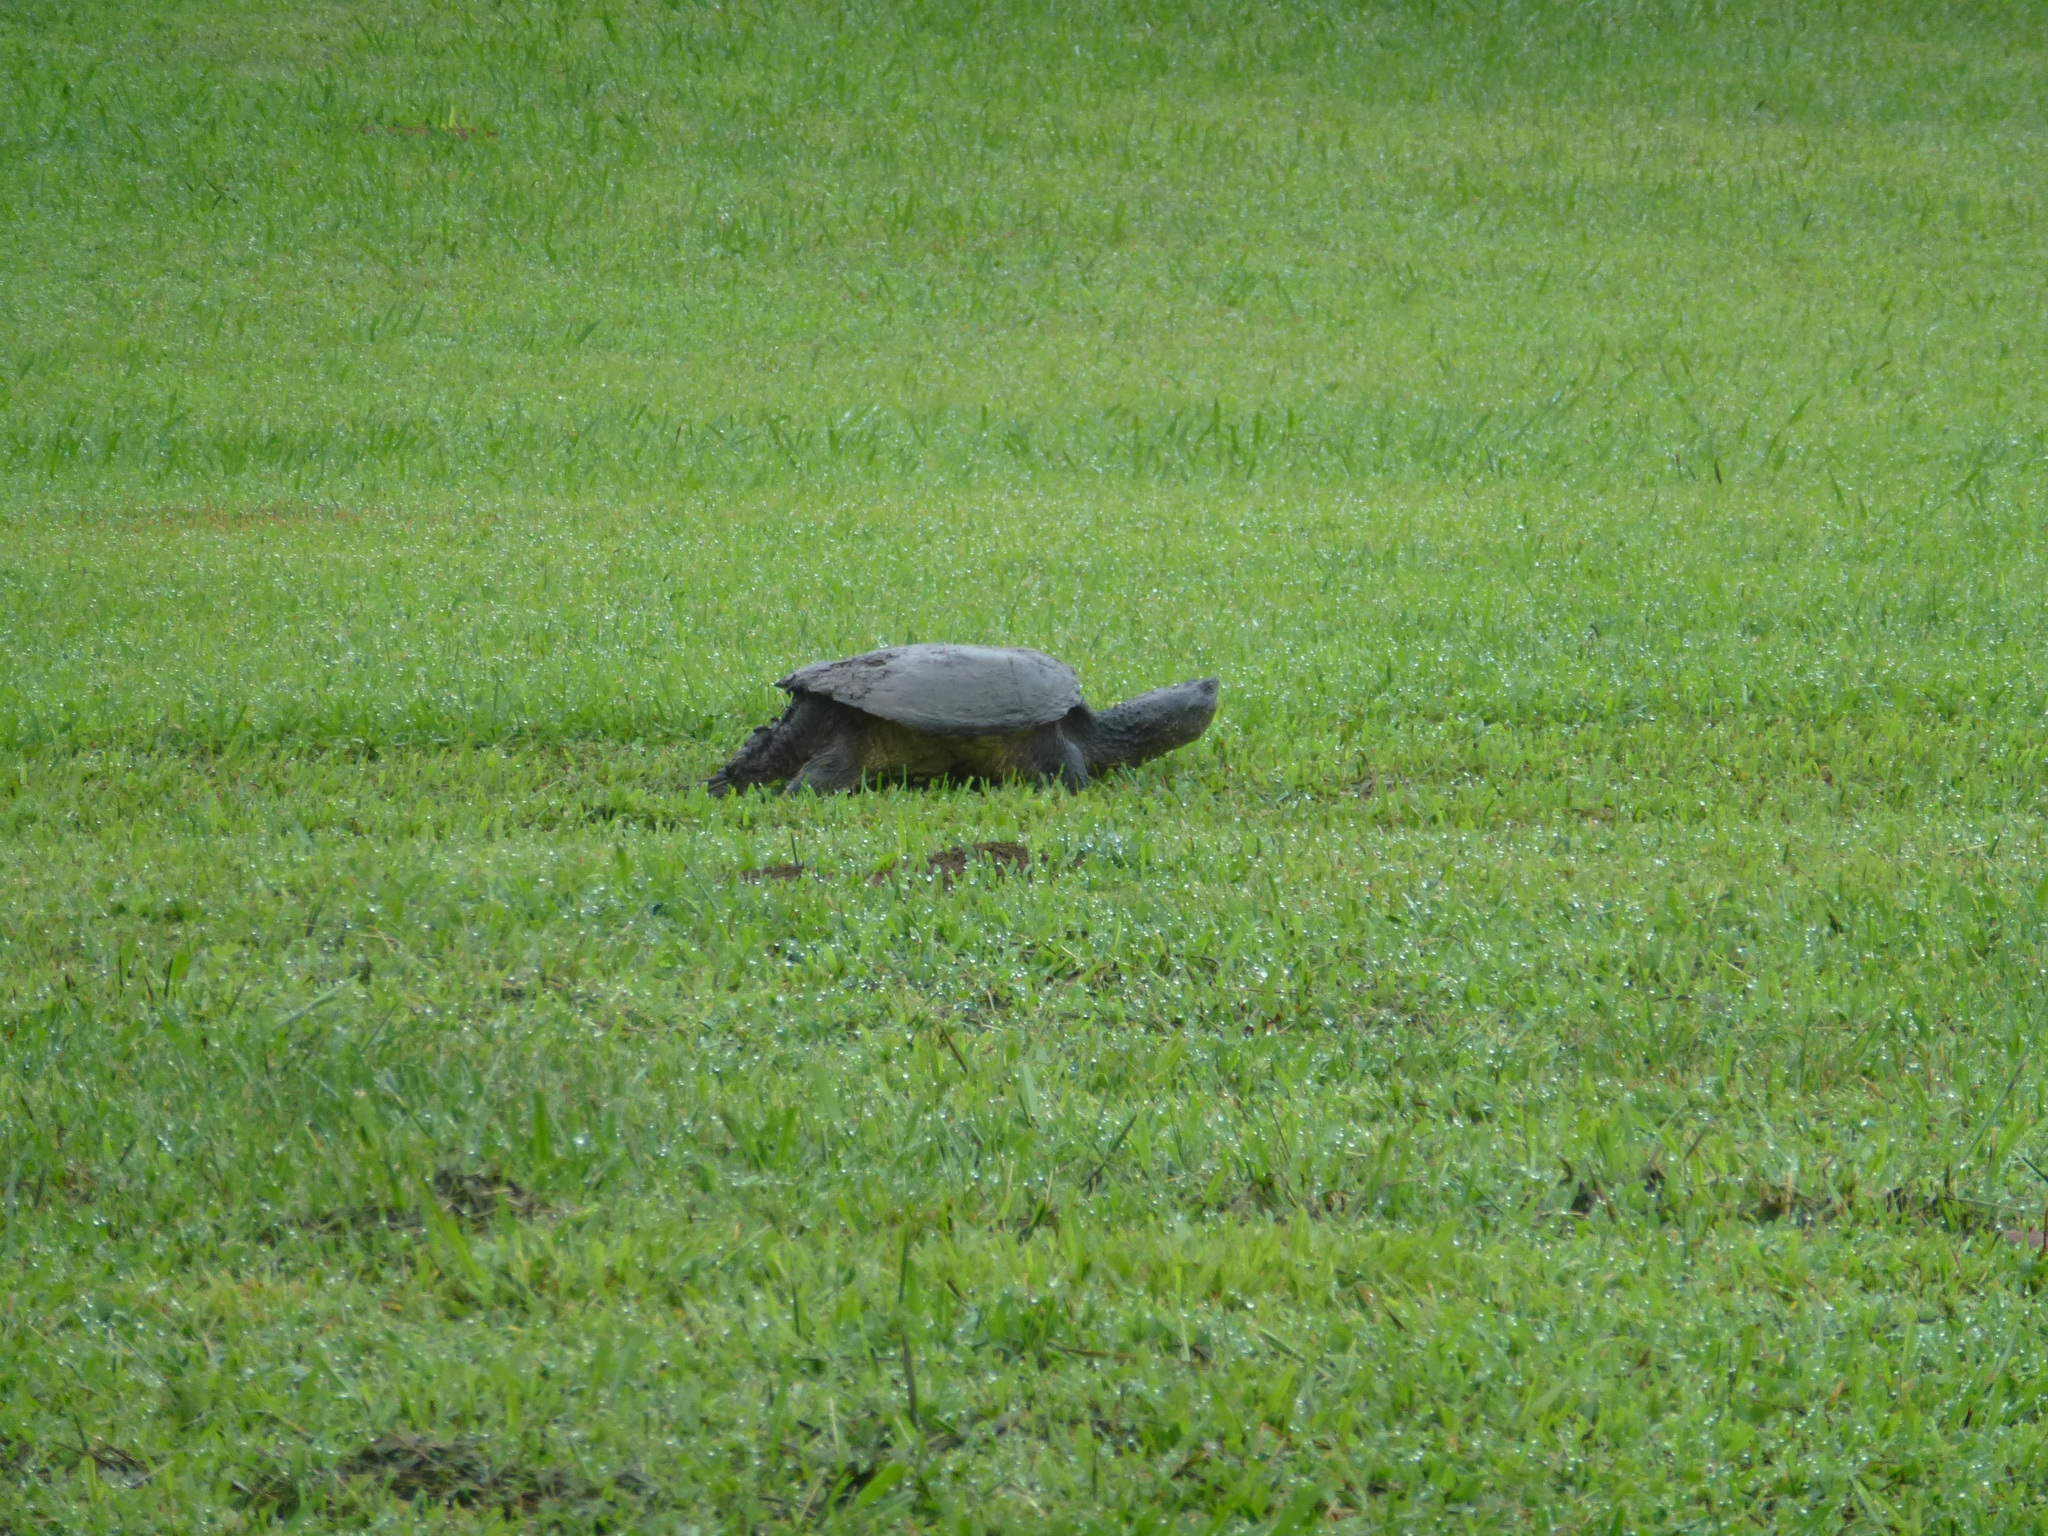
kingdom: Animalia
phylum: Chordata
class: Testudines
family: Chelydridae
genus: Chelydra
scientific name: Chelydra serpentina
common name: Common snapping turtle
